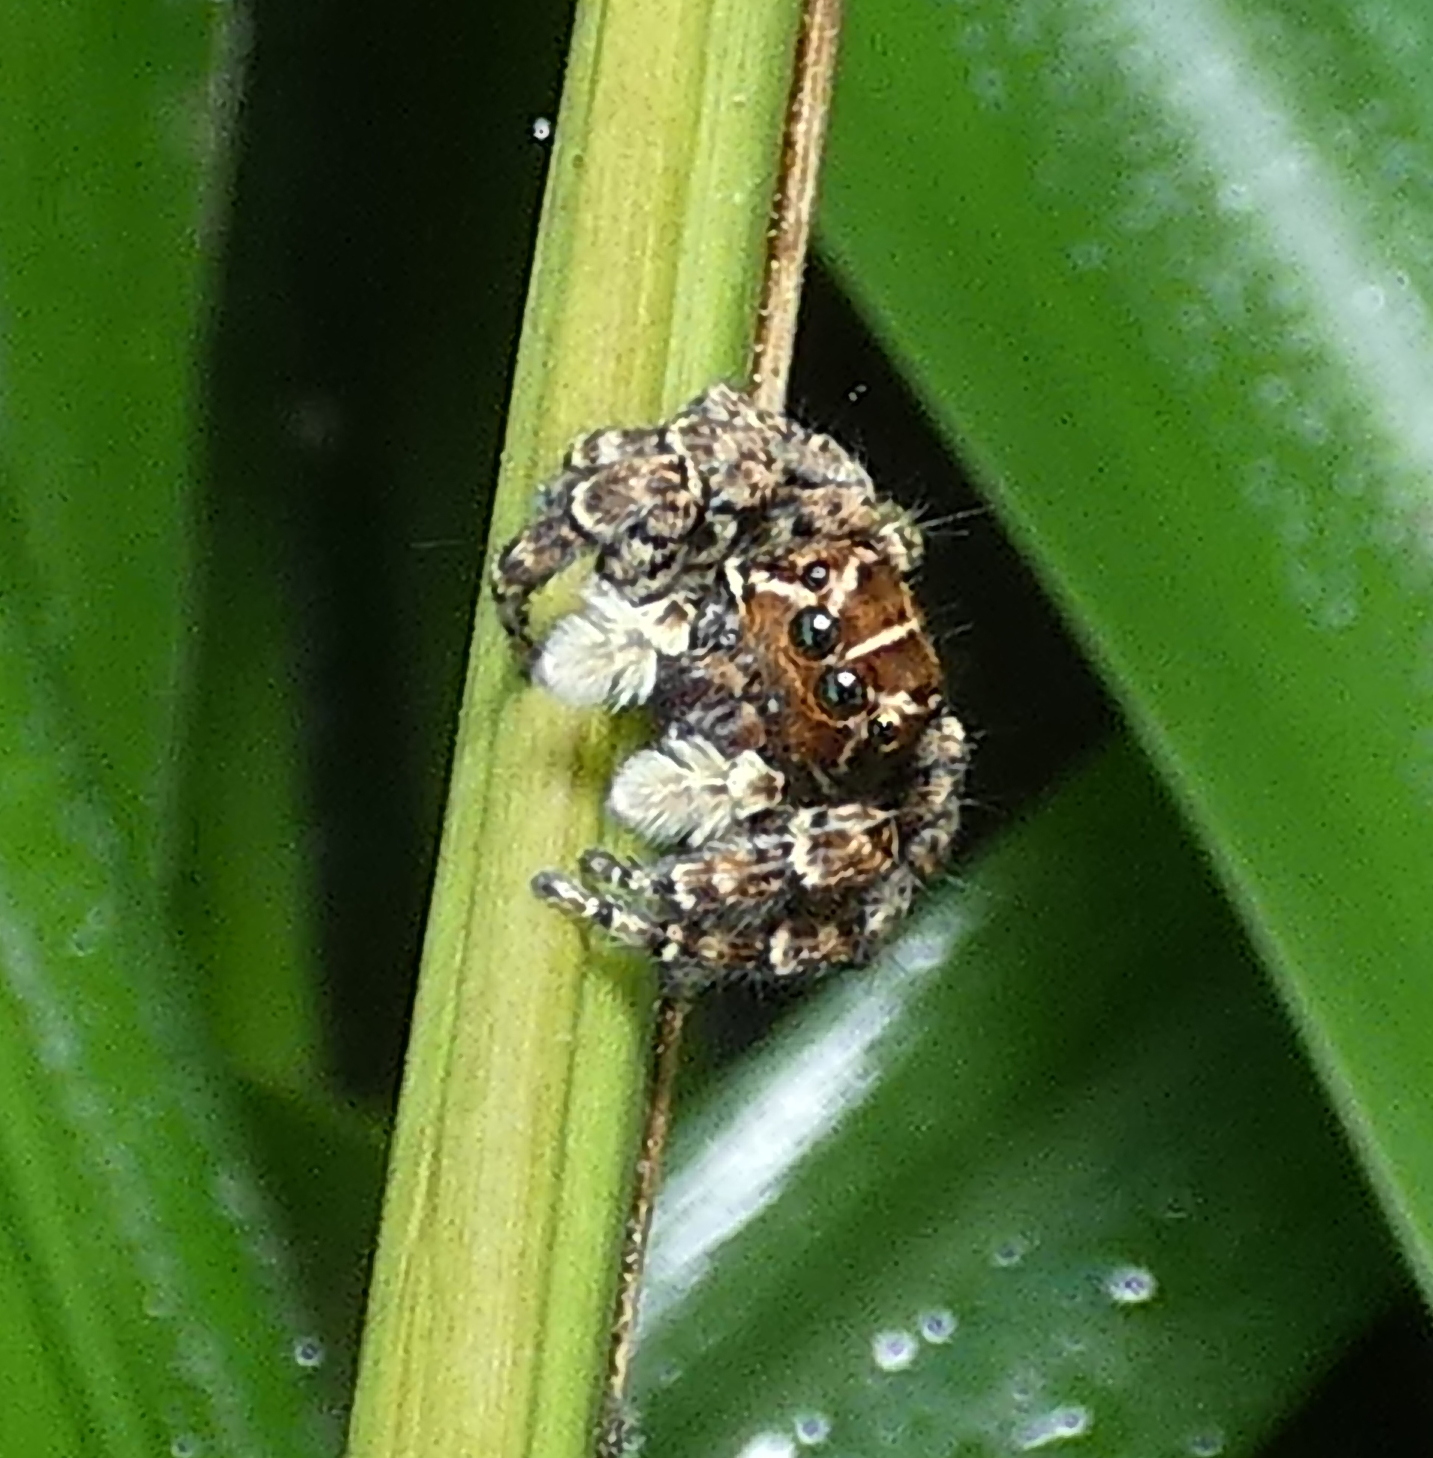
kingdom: Animalia
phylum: Arthropoda
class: Arachnida
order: Araneae
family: Salticidae
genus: Sumampattus
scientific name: Sumampattus quinqueradiatus
